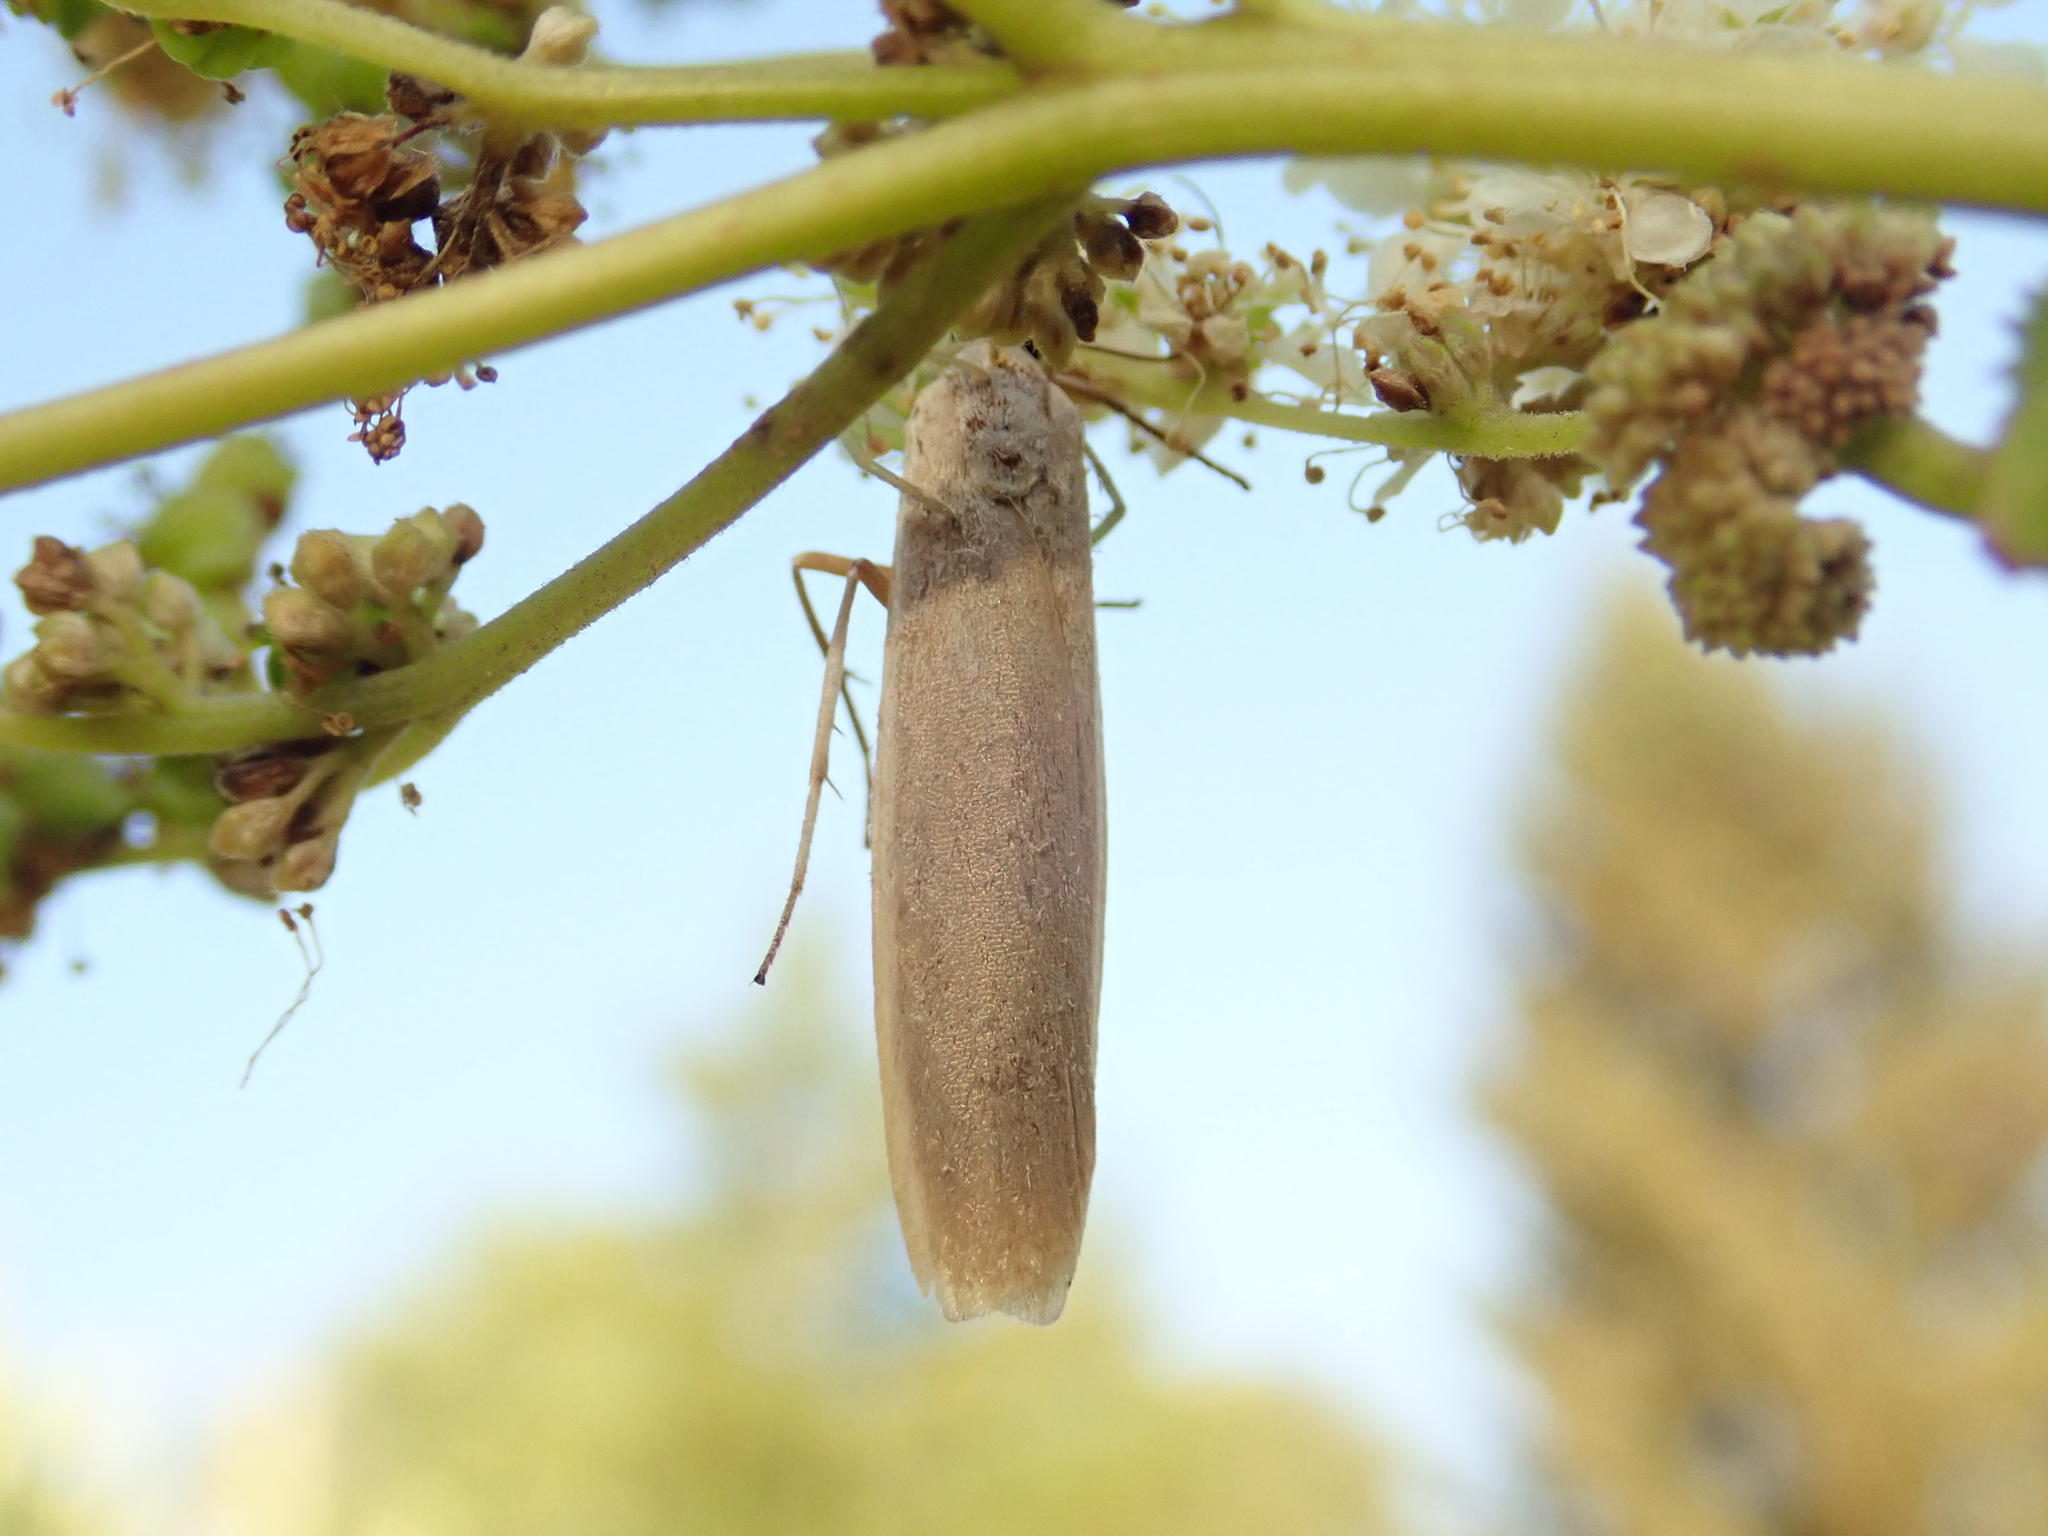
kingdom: Animalia
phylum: Arthropoda
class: Insecta
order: Lepidoptera
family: Erebidae
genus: Manulea
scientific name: Manulea complana
